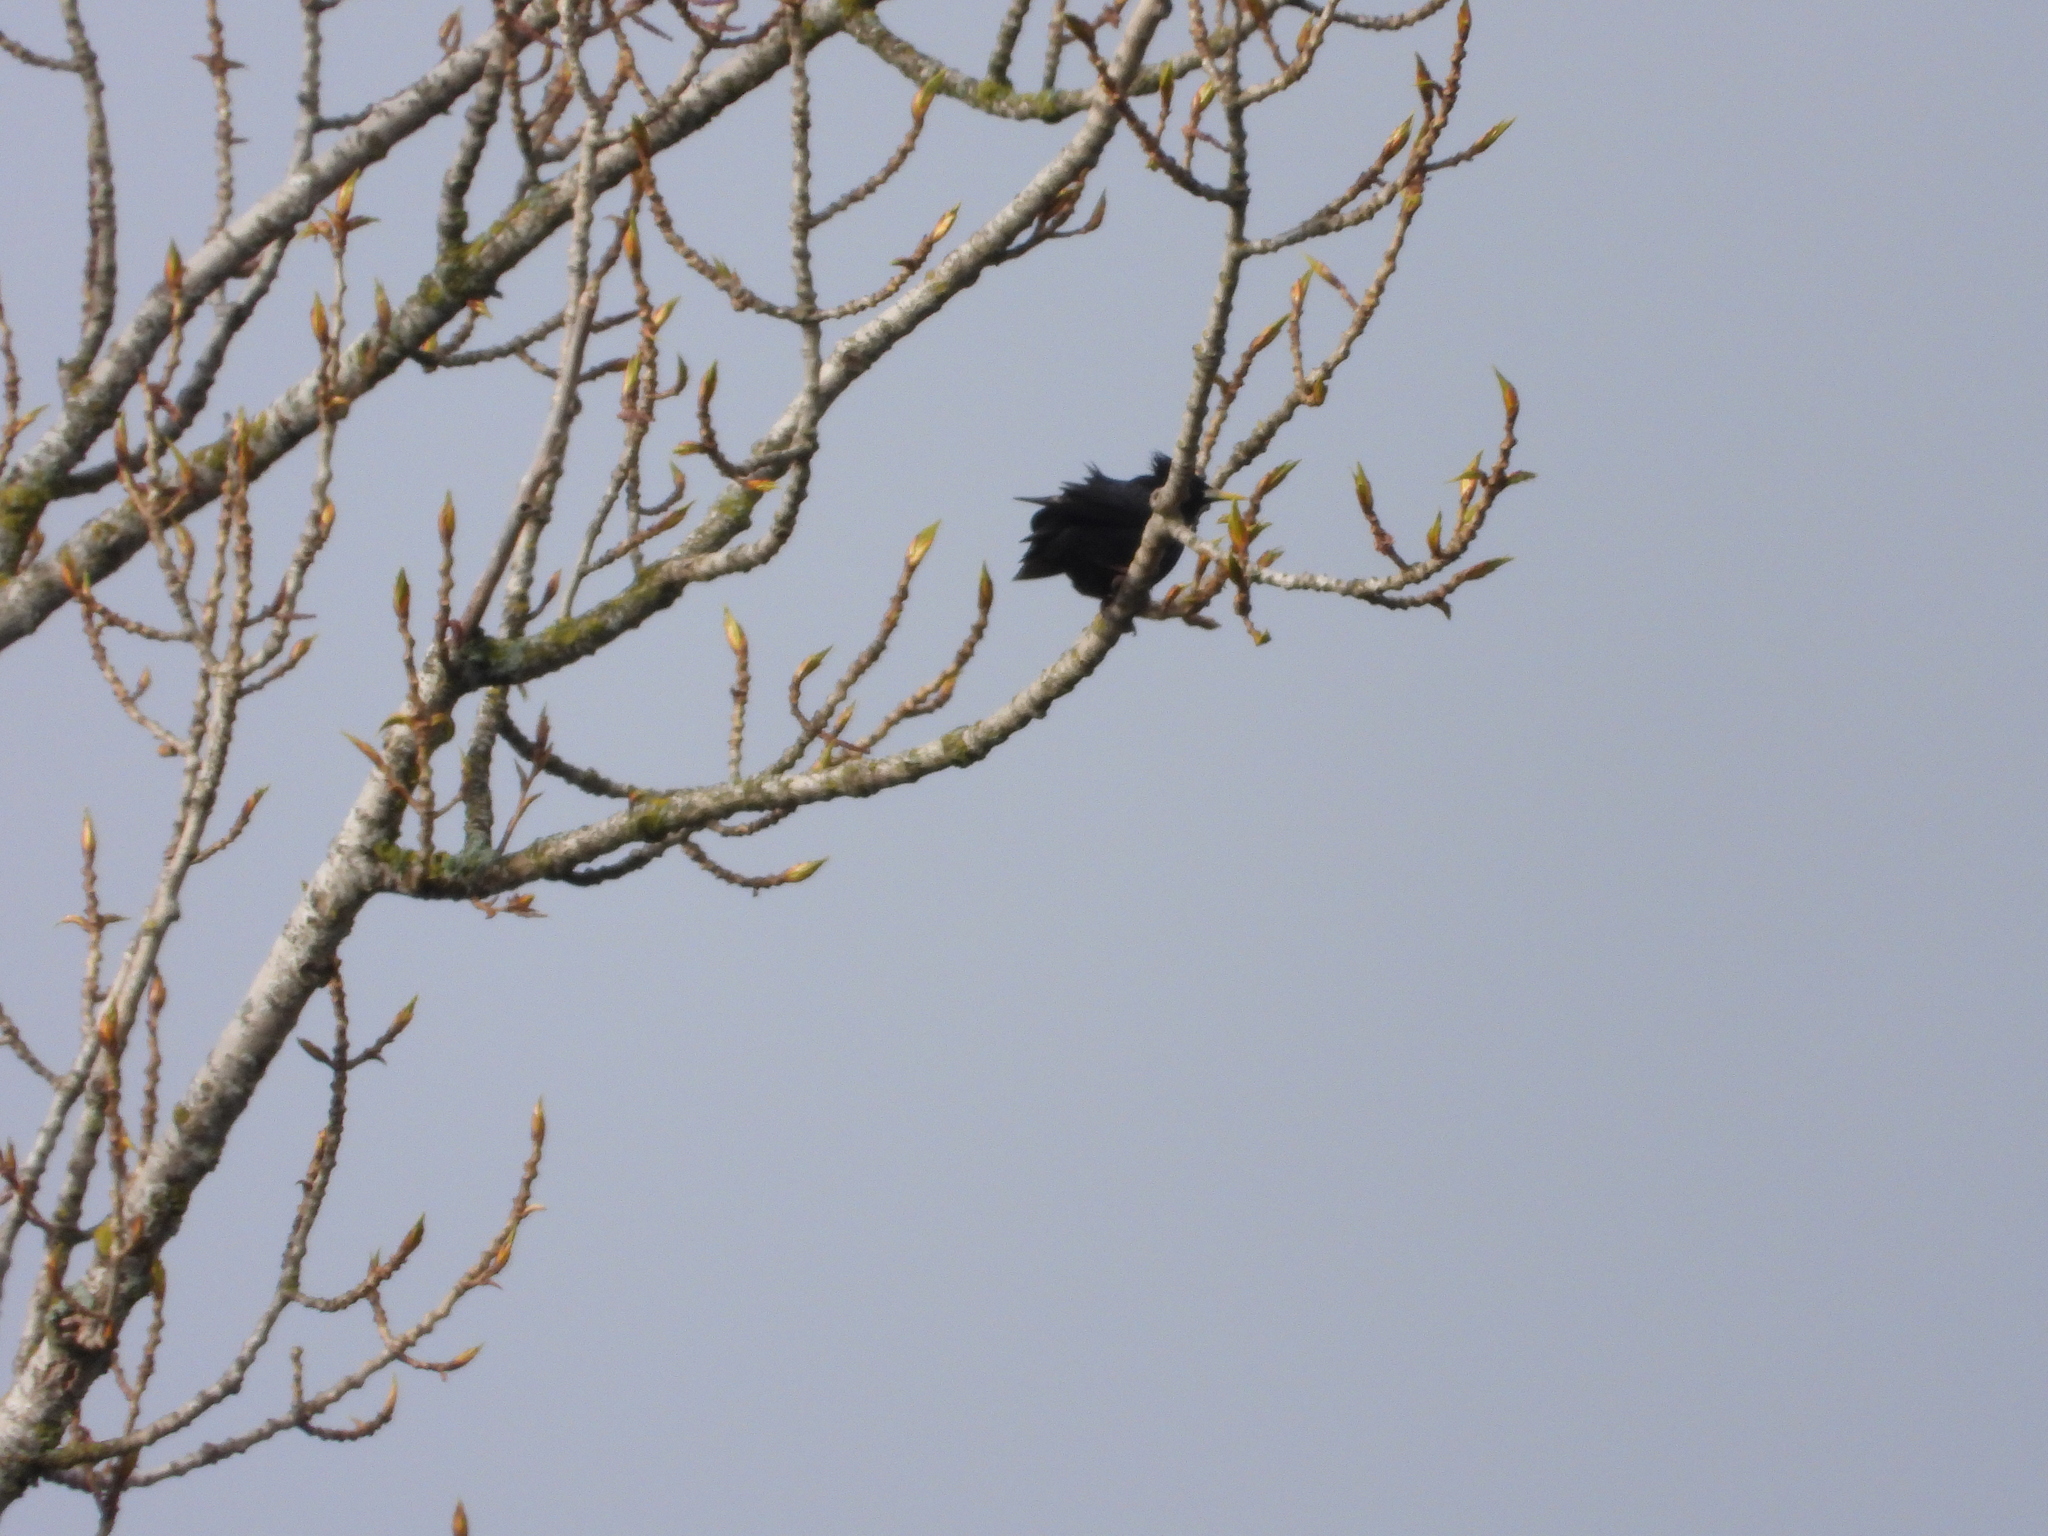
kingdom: Animalia
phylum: Chordata
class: Aves
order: Passeriformes
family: Sturnidae
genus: Sturnus
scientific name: Sturnus unicolor
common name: Spotless starling
